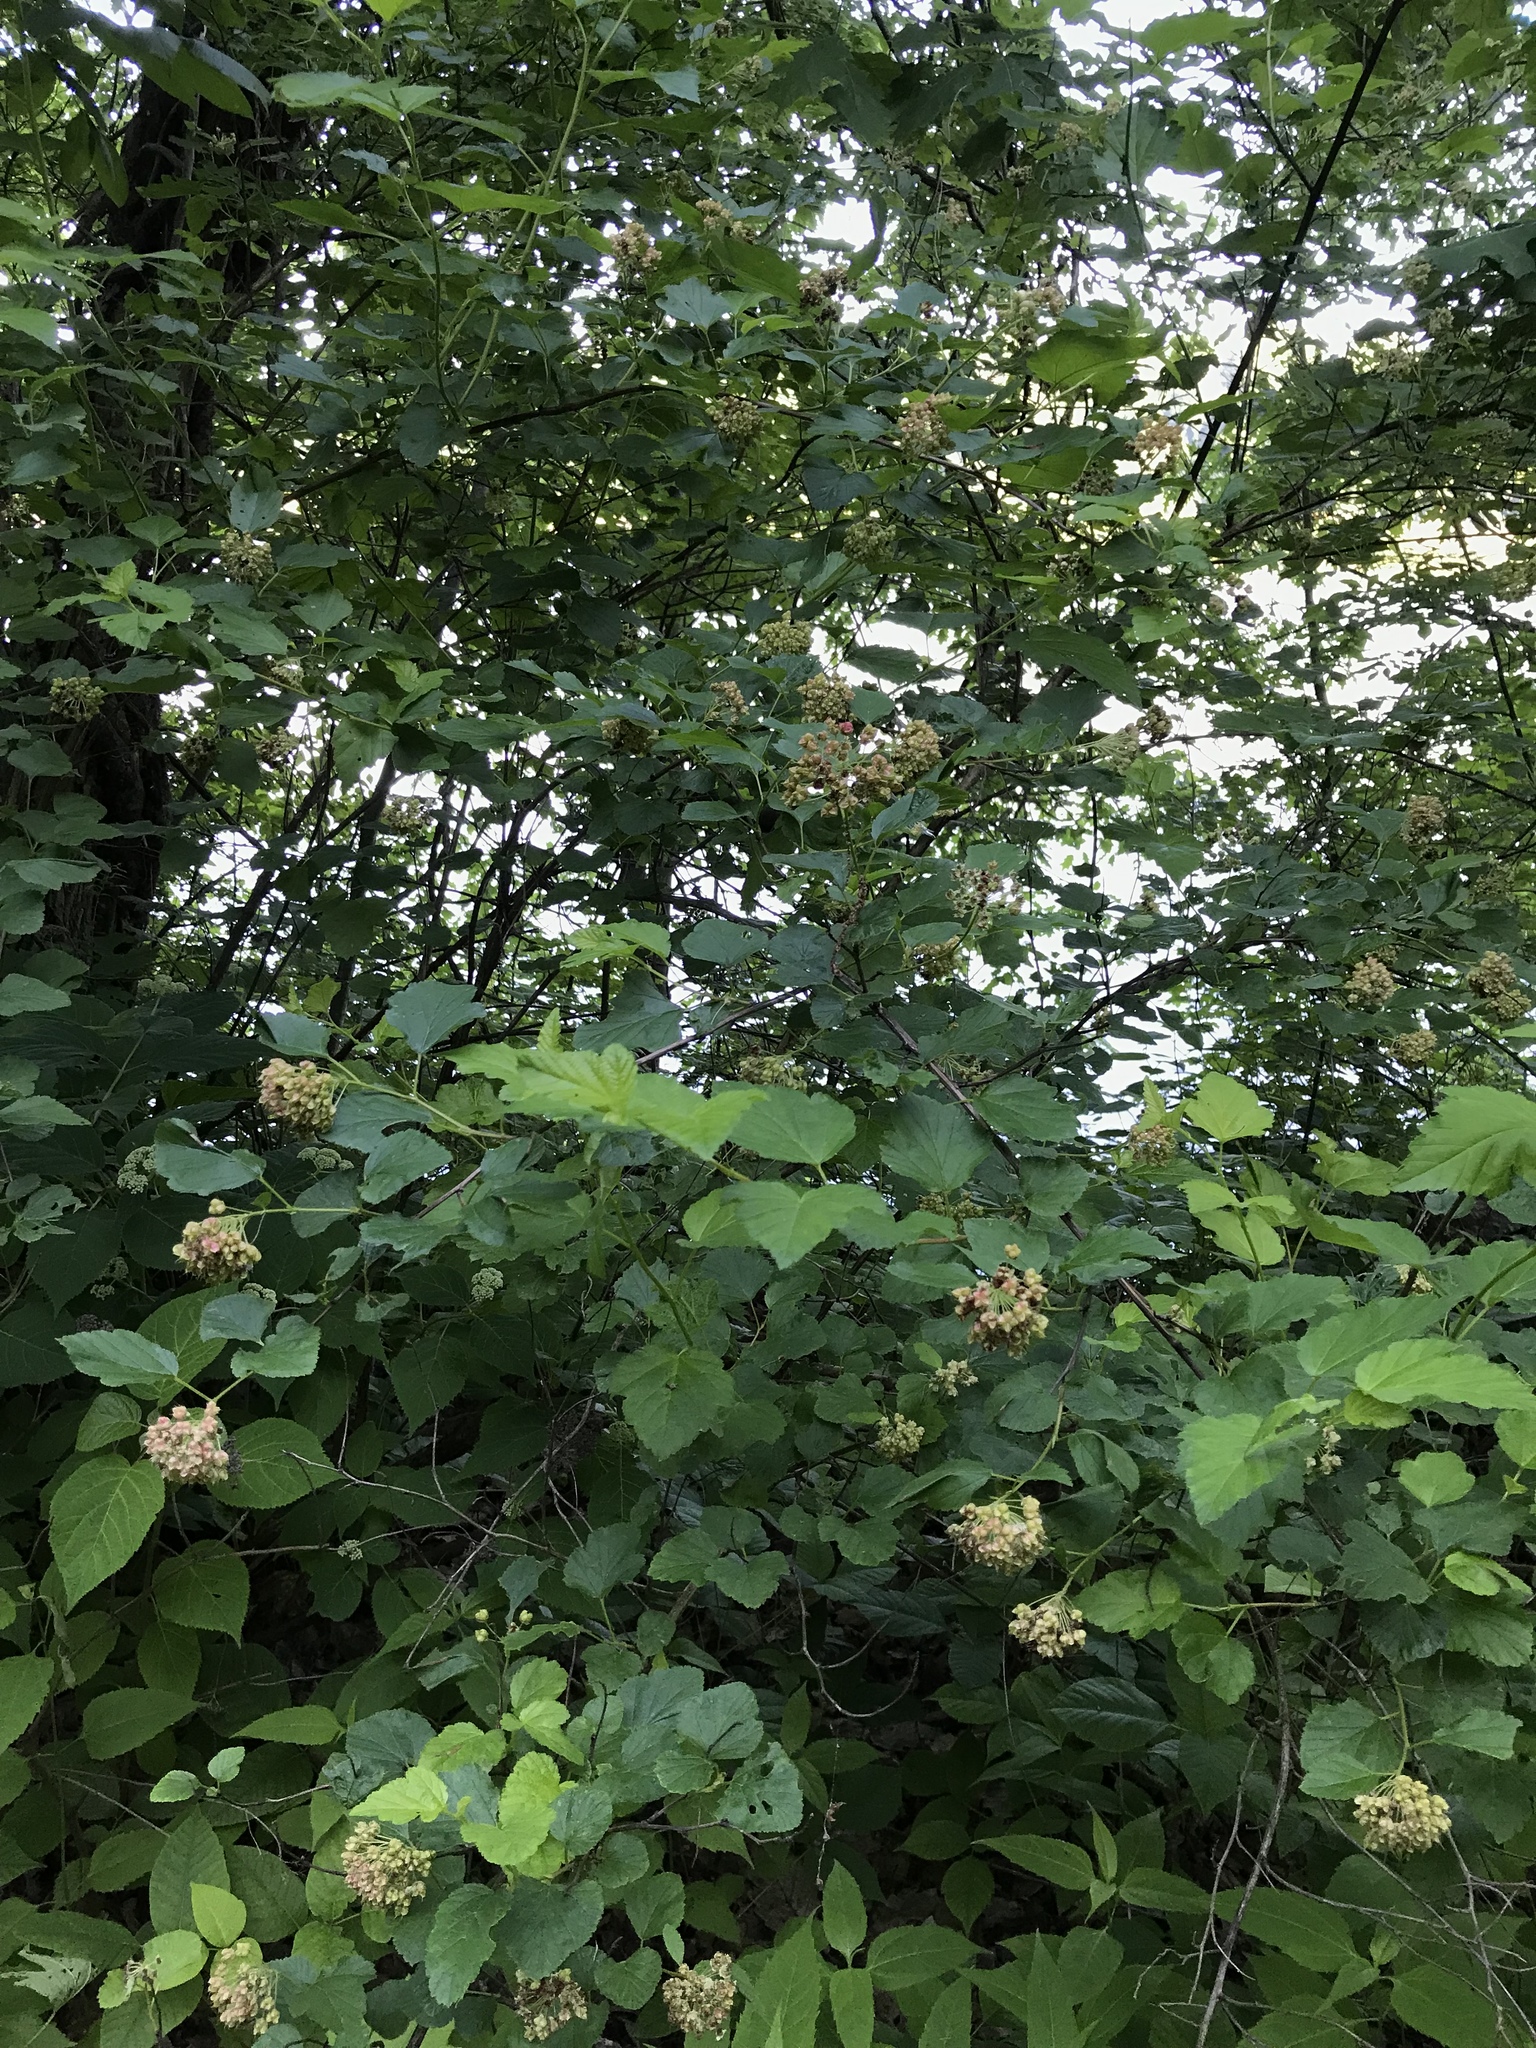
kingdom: Plantae
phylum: Tracheophyta
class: Magnoliopsida
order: Rosales
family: Rosaceae
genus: Physocarpus
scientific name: Physocarpus opulifolius
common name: Ninebark
